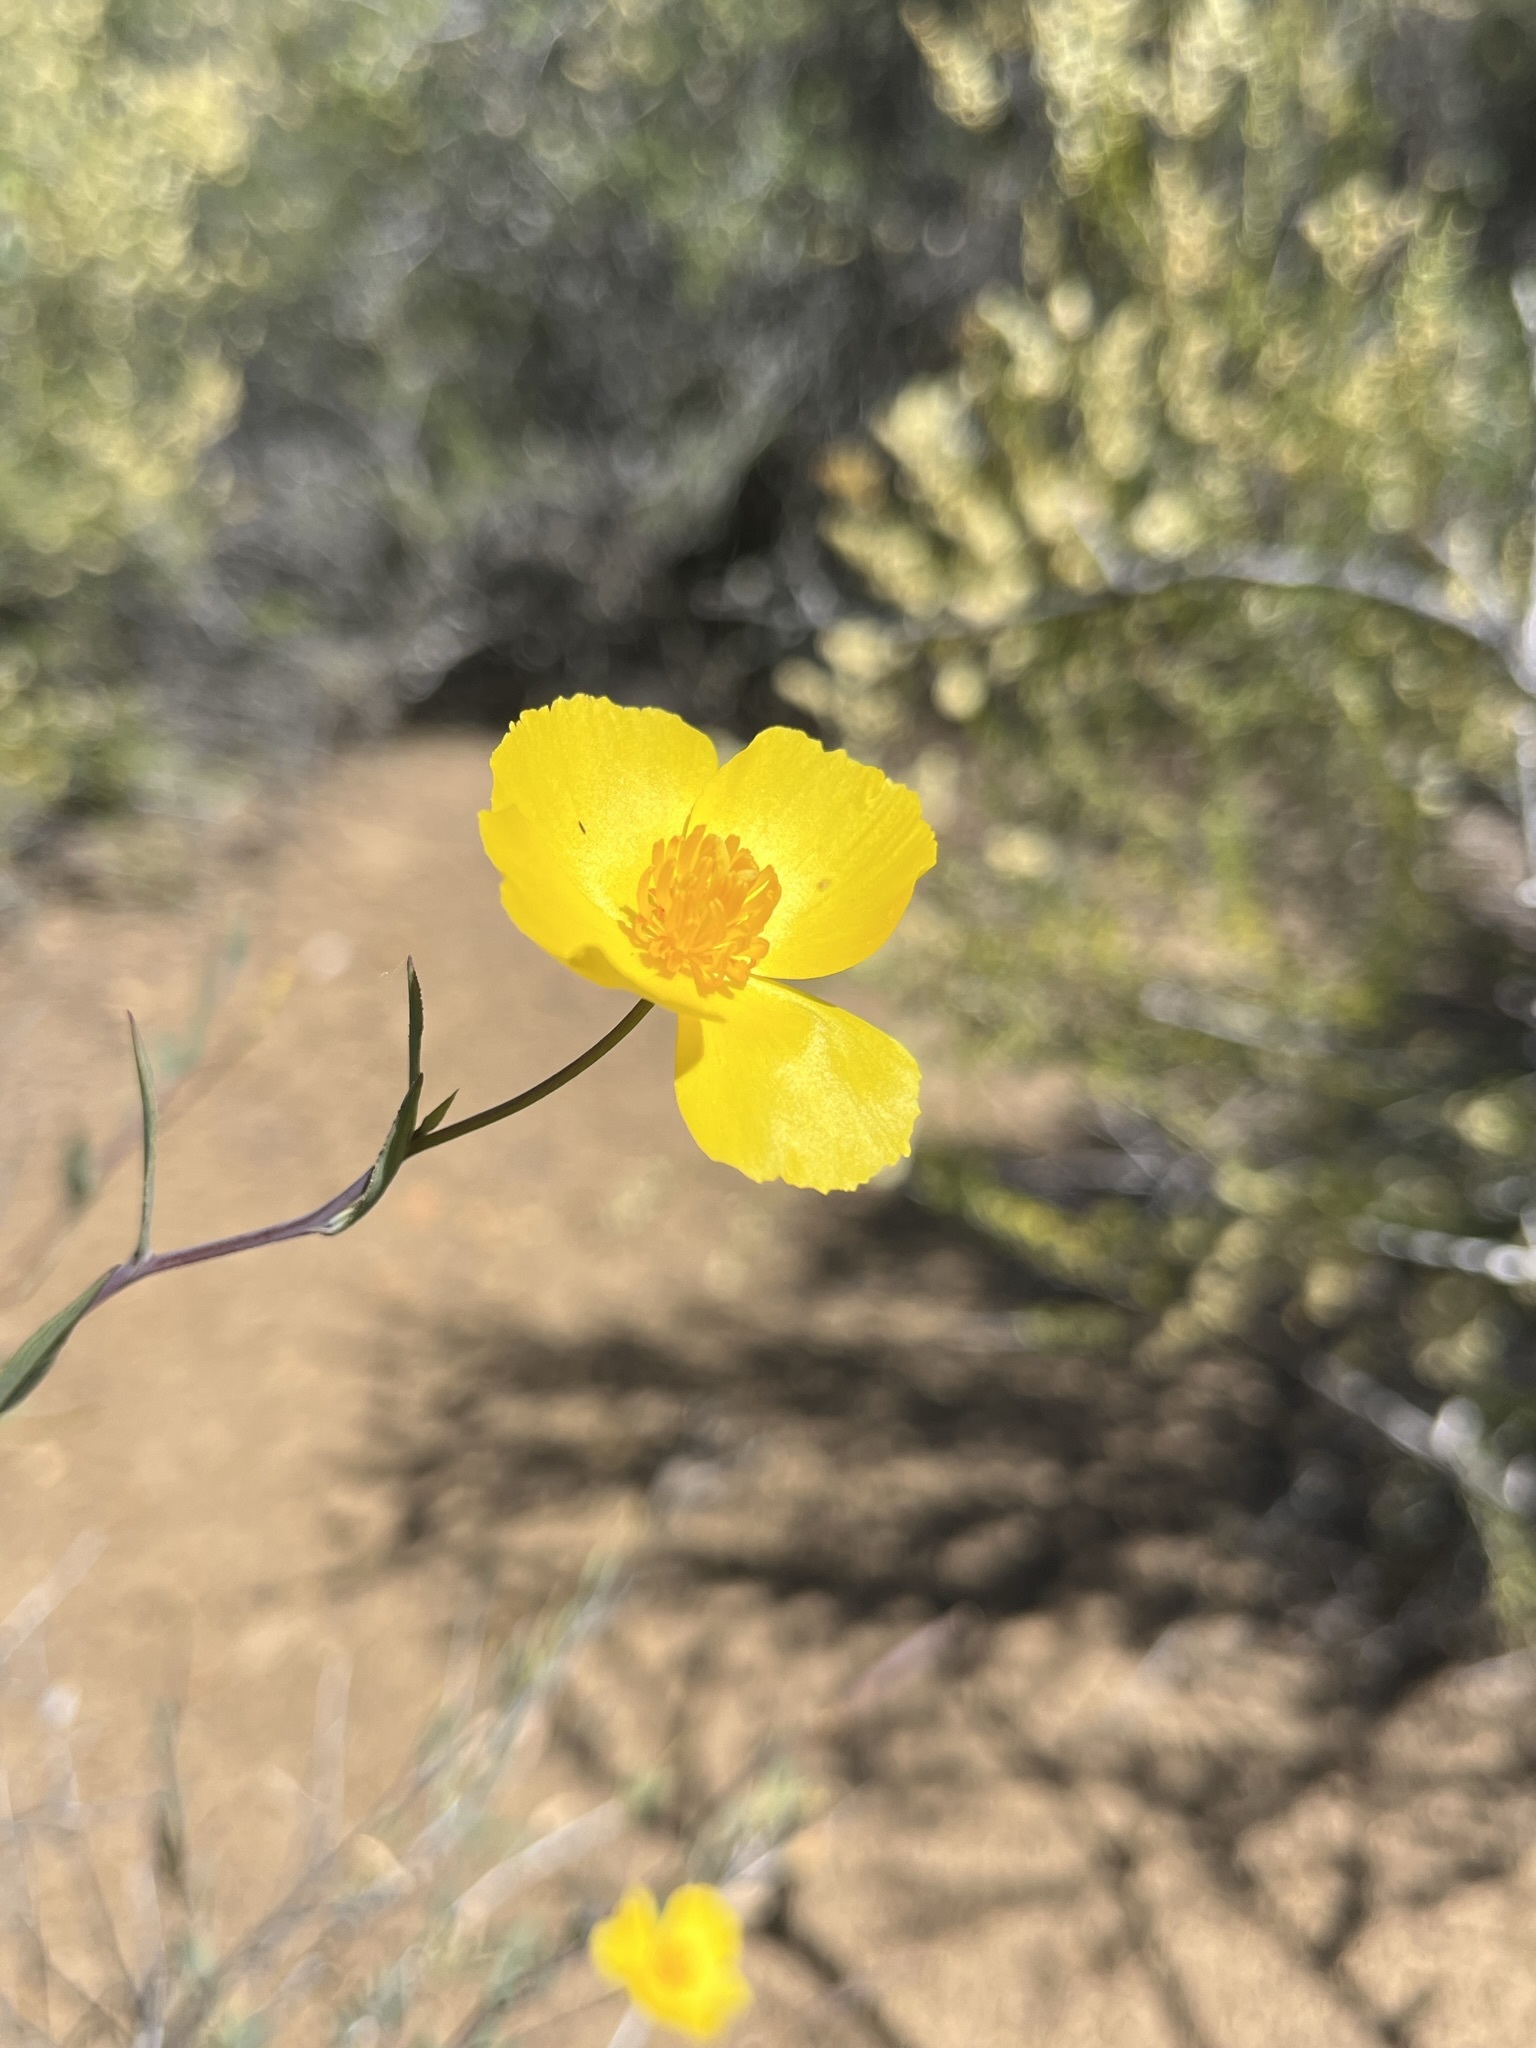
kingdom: Plantae
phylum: Tracheophyta
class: Magnoliopsida
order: Ranunculales
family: Papaveraceae
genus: Dendromecon
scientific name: Dendromecon rigida
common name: Tree poppy
